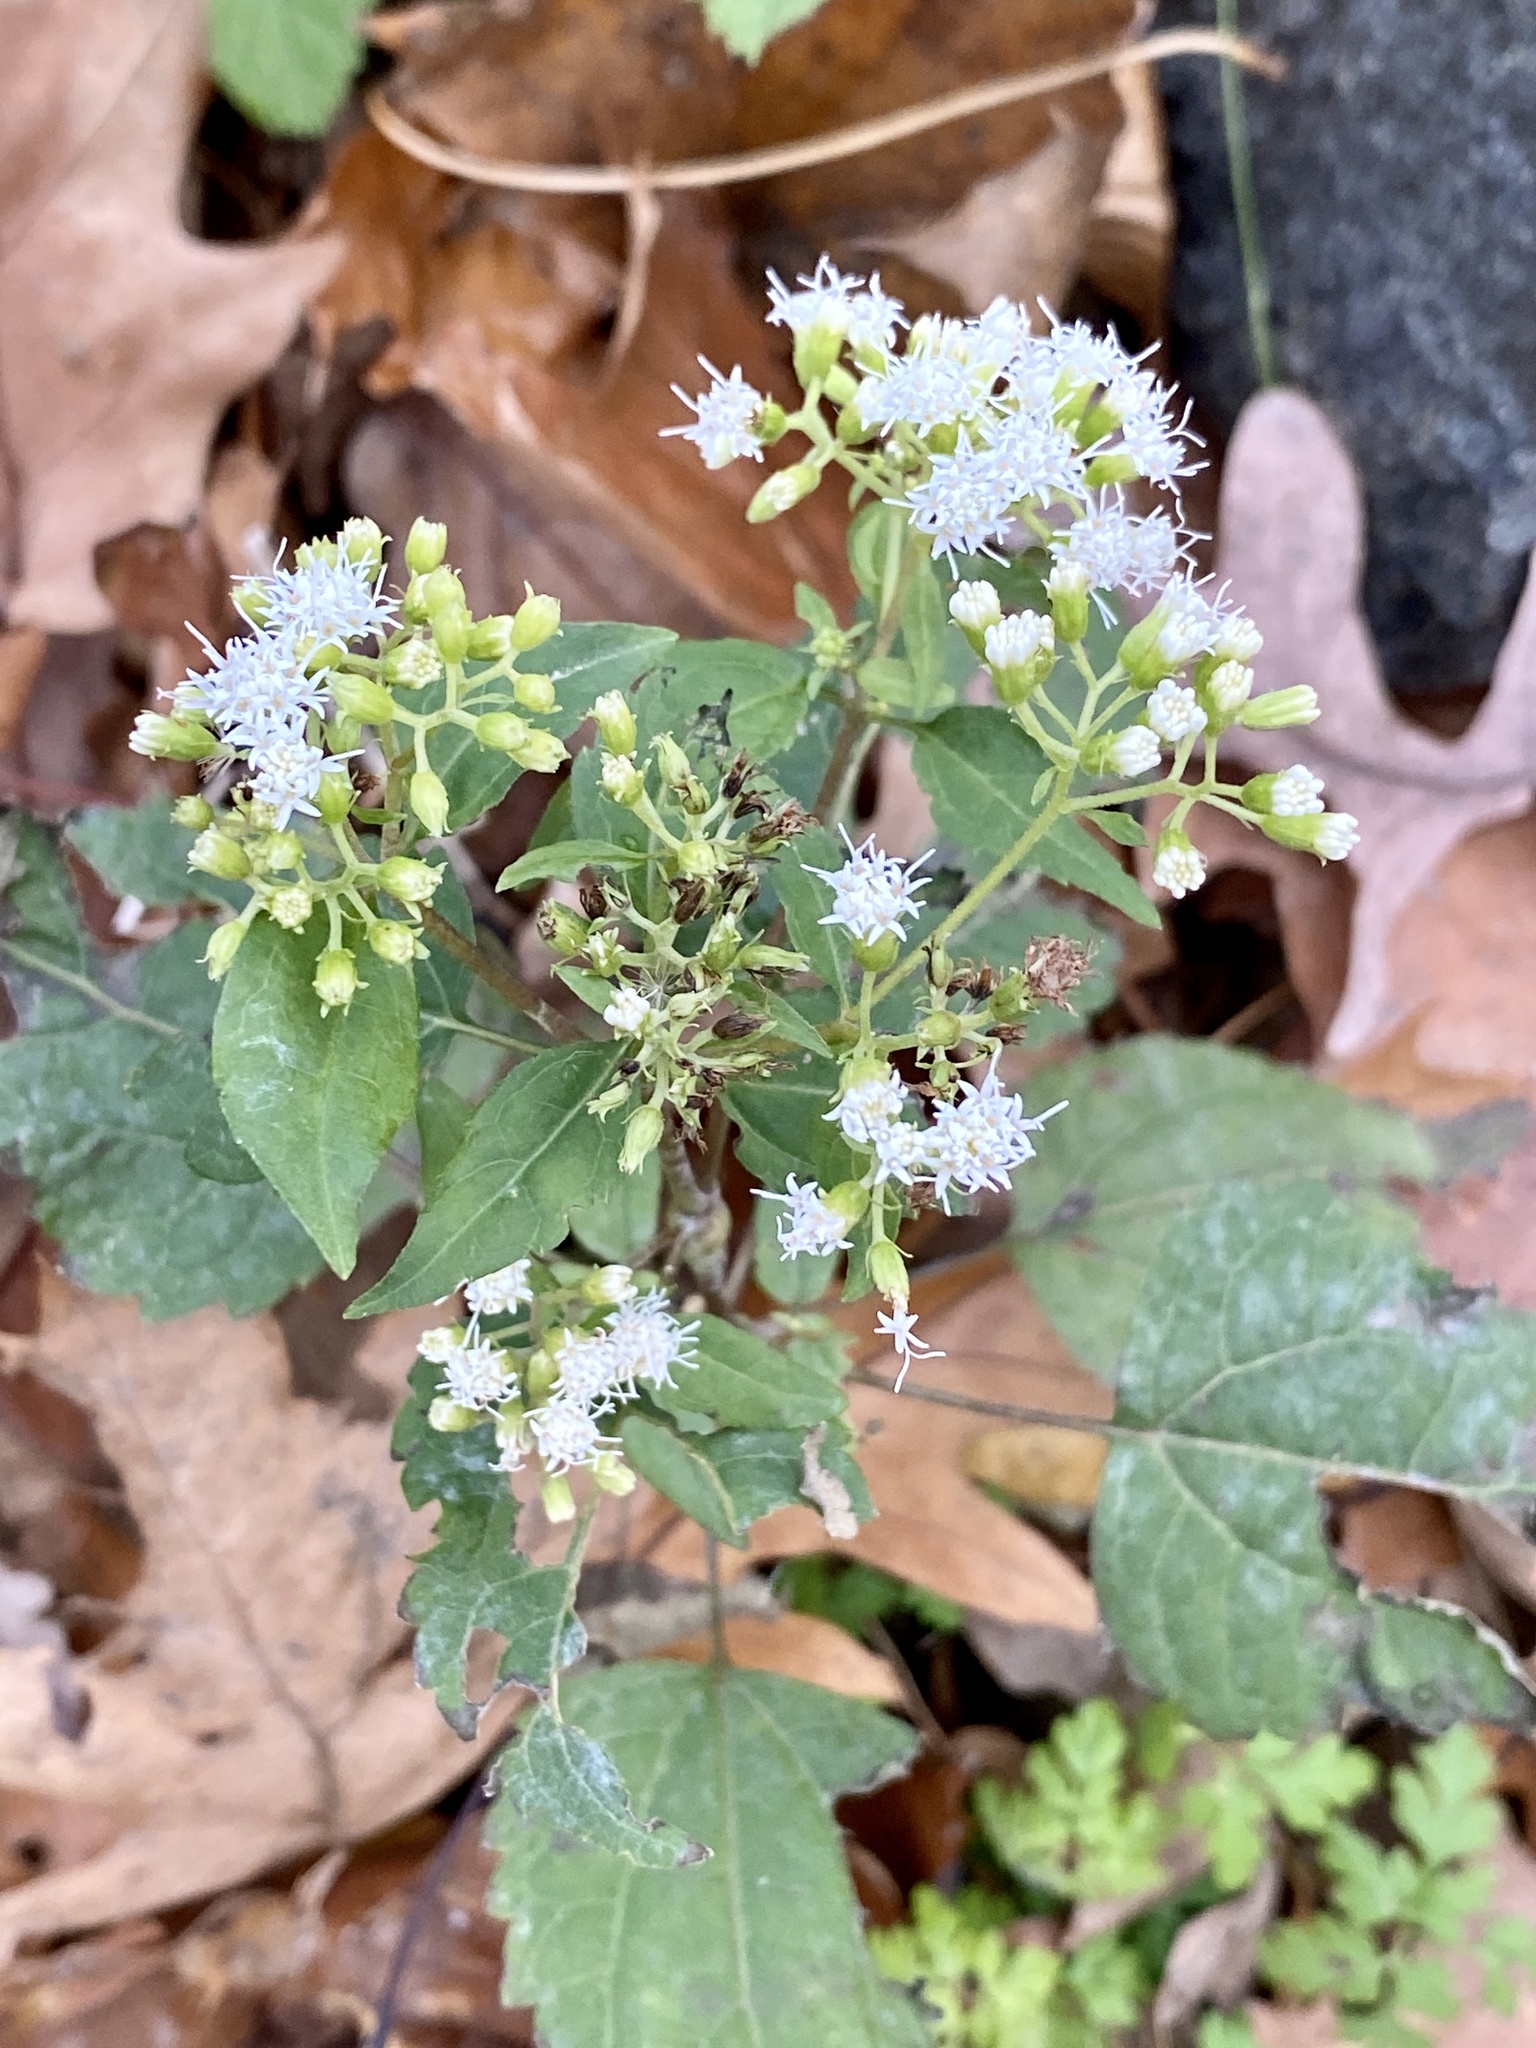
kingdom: Plantae
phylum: Tracheophyta
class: Magnoliopsida
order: Asterales
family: Asteraceae
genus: Ageratina
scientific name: Ageratina altissima
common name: White snakeroot
